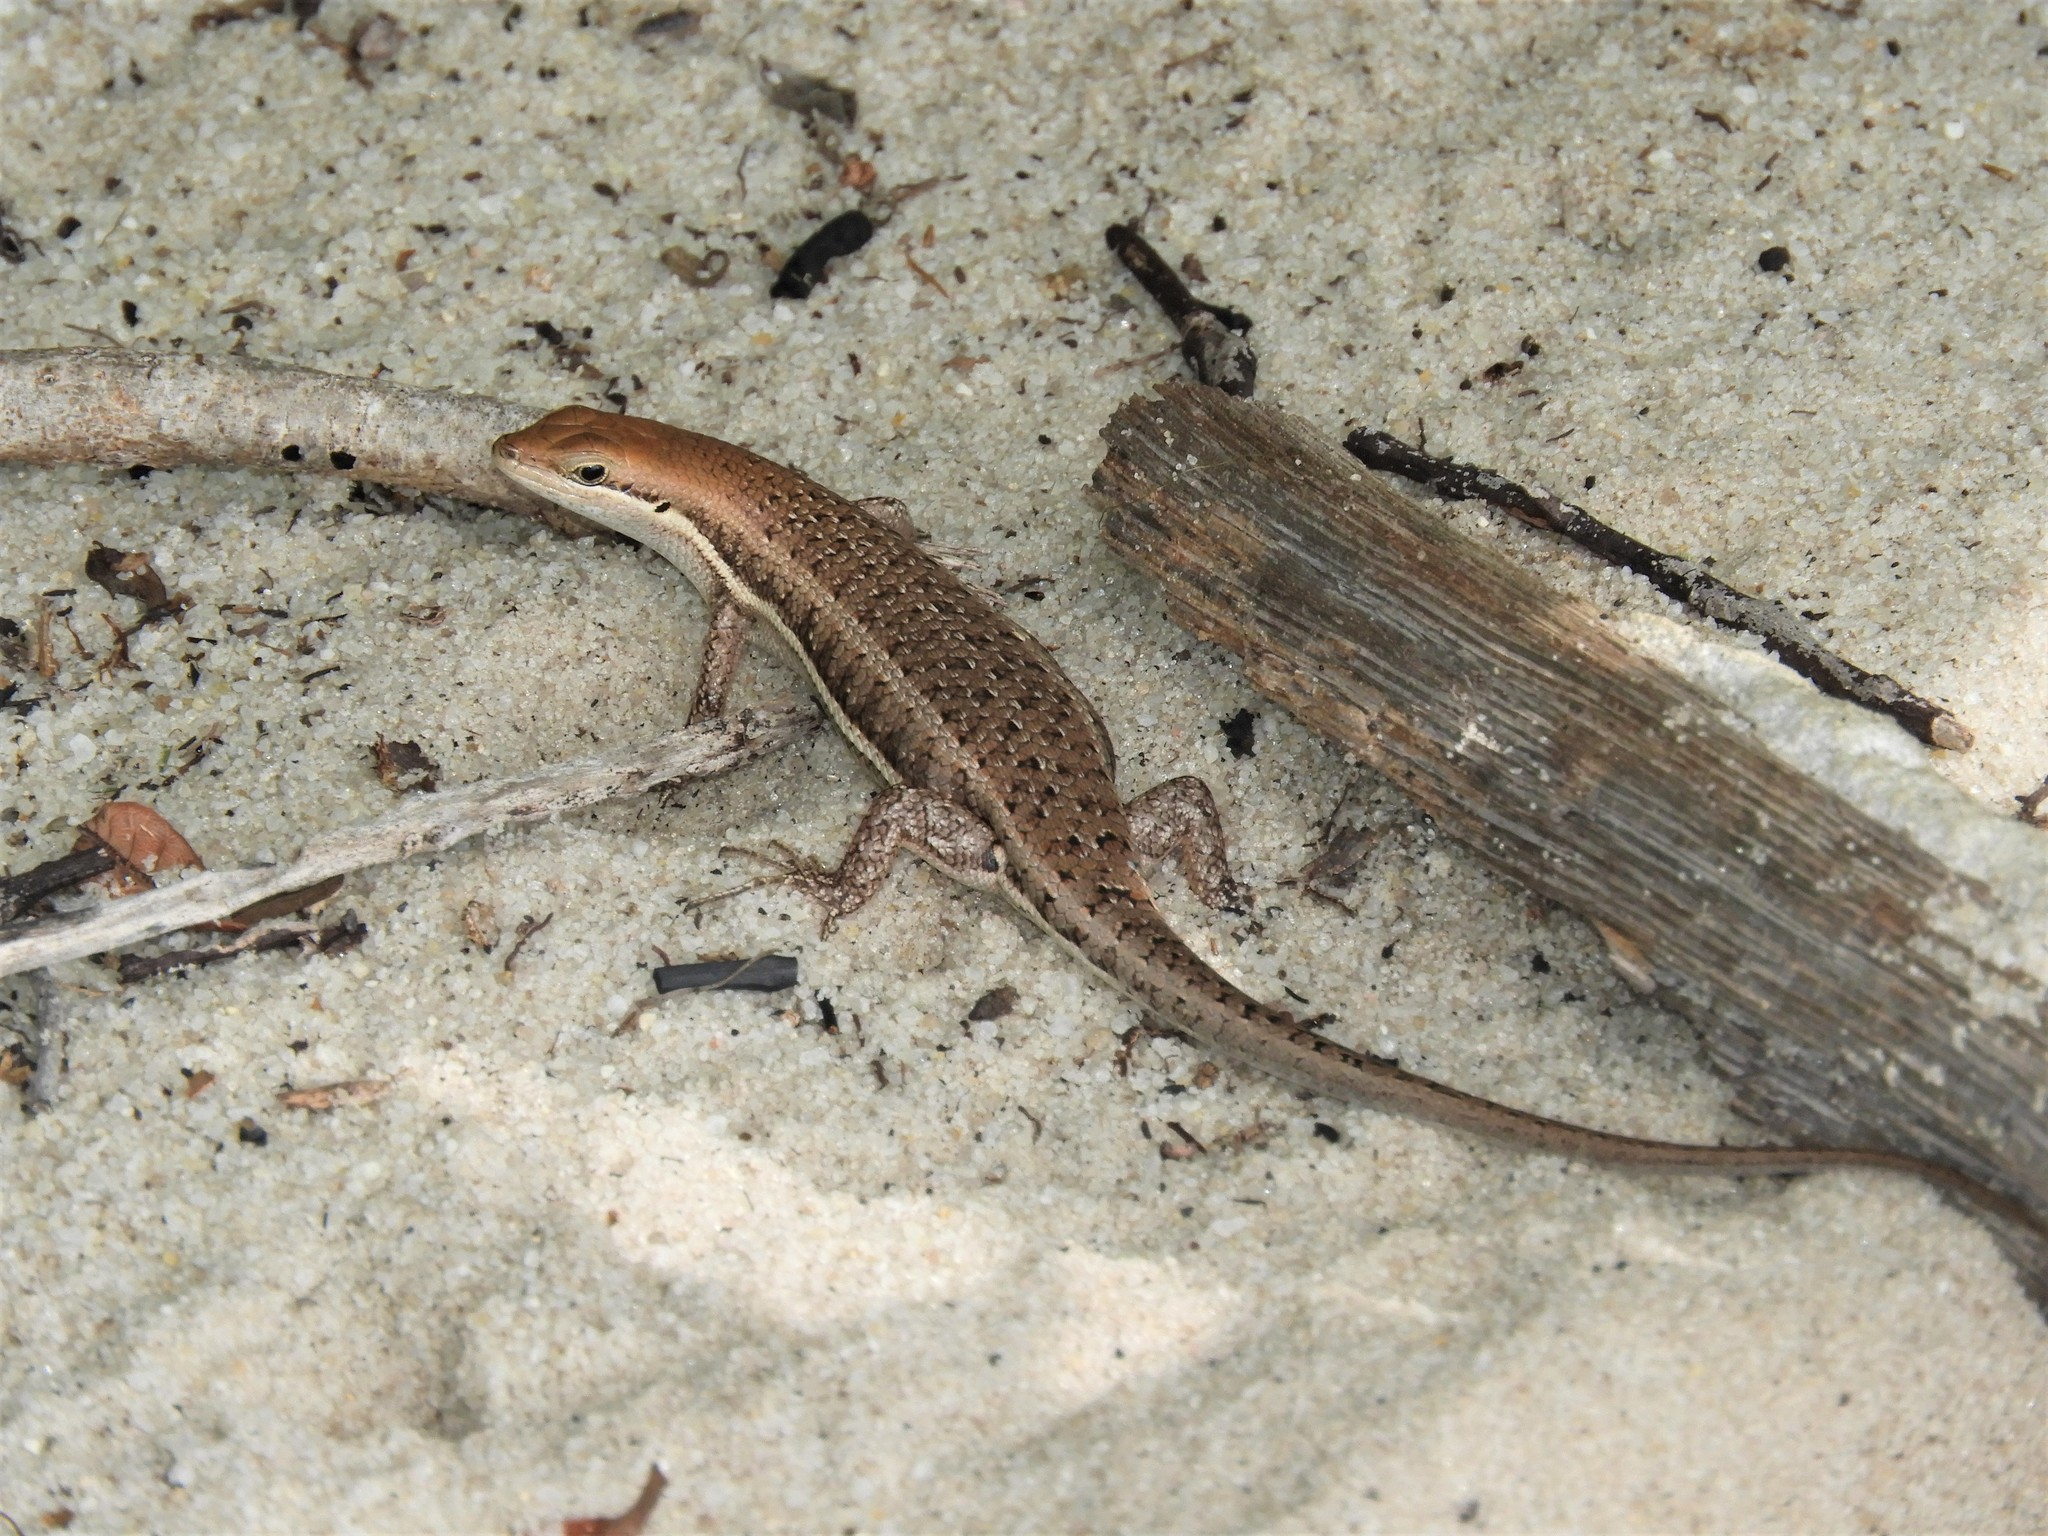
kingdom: Animalia
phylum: Chordata
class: Squamata
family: Scincidae
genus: Trachylepis
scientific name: Trachylepis varia
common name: Eastern variable skink
